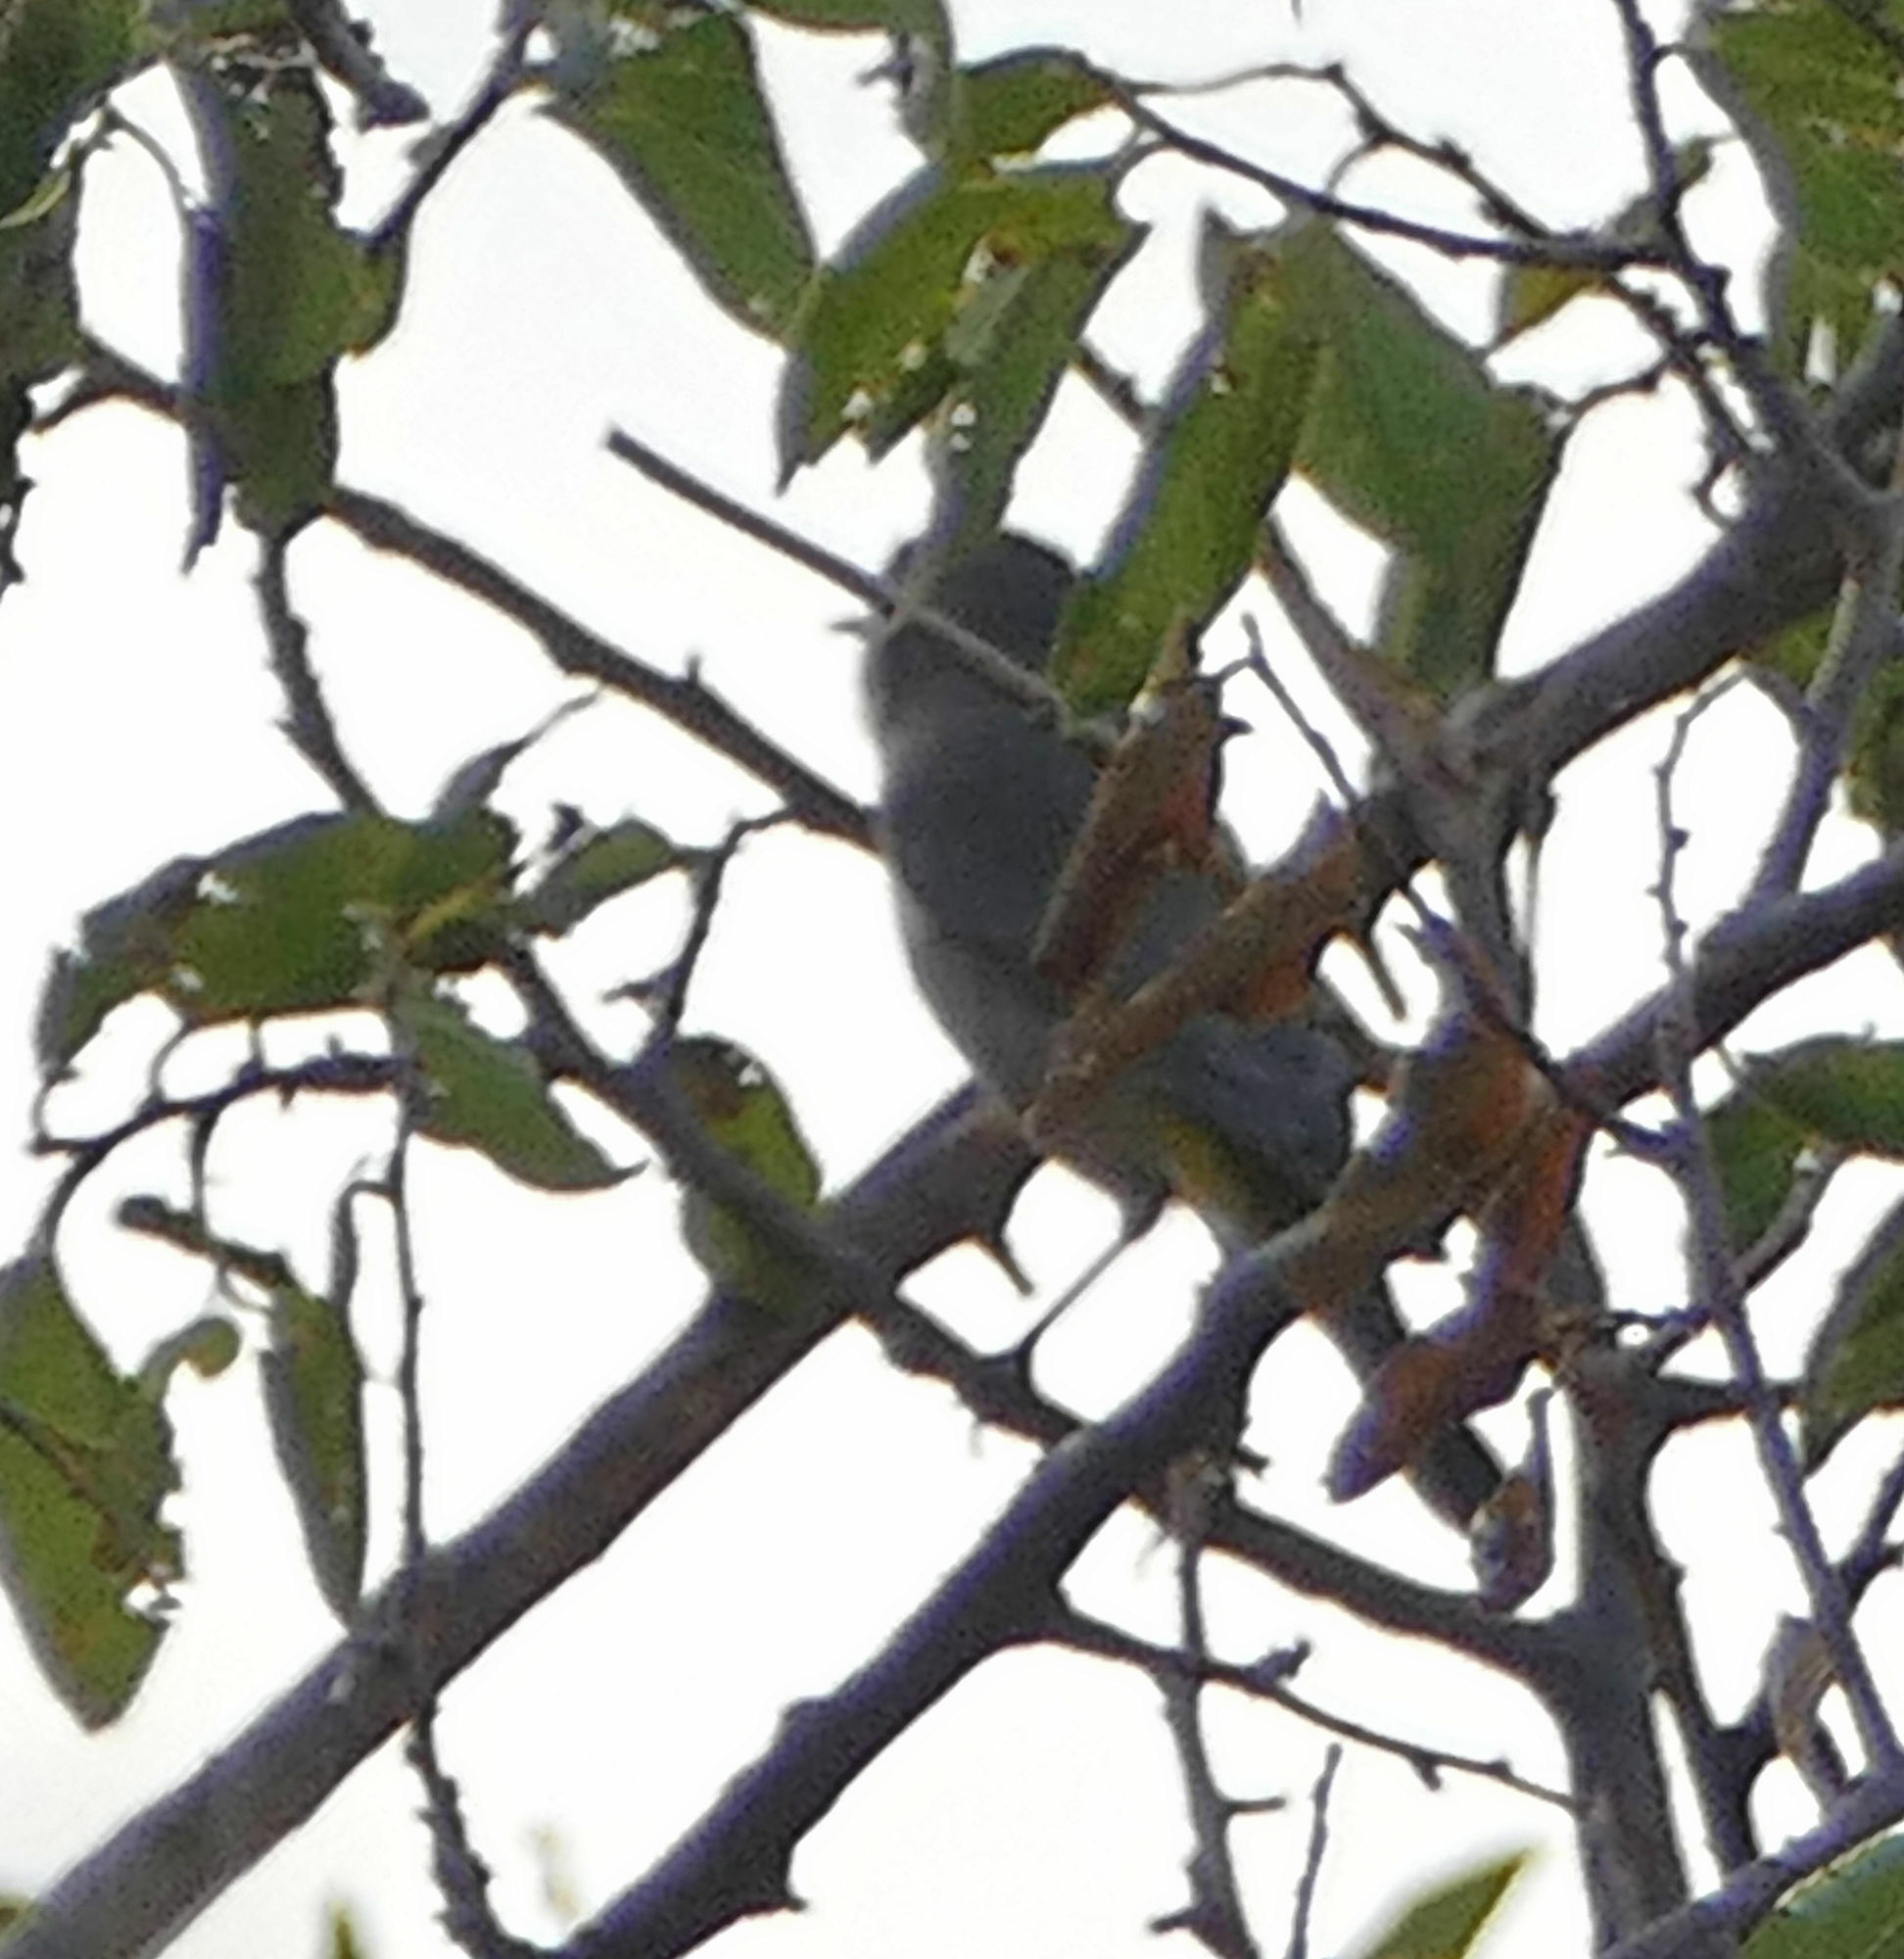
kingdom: Animalia
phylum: Chordata
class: Aves
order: Passeriformes
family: Parulidae
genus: Leiothlypis
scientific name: Leiothlypis virginiae
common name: Virginia's warbler
